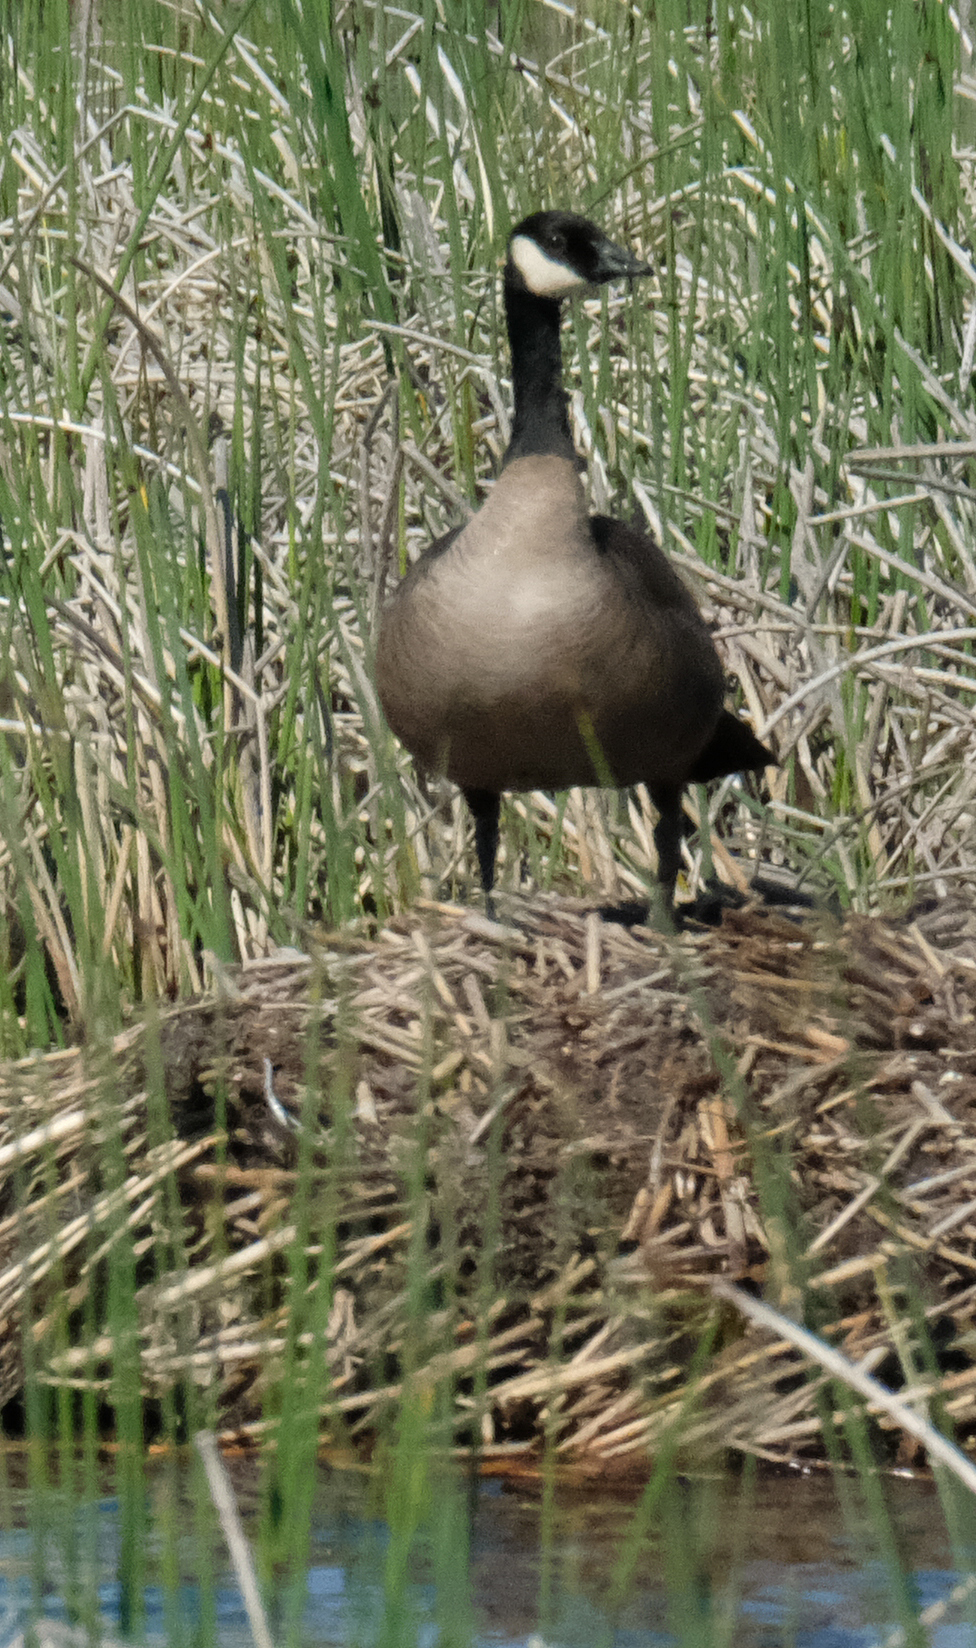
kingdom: Animalia
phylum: Chordata
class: Aves
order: Anseriformes
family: Anatidae
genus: Branta
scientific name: Branta canadensis
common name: Canada goose
